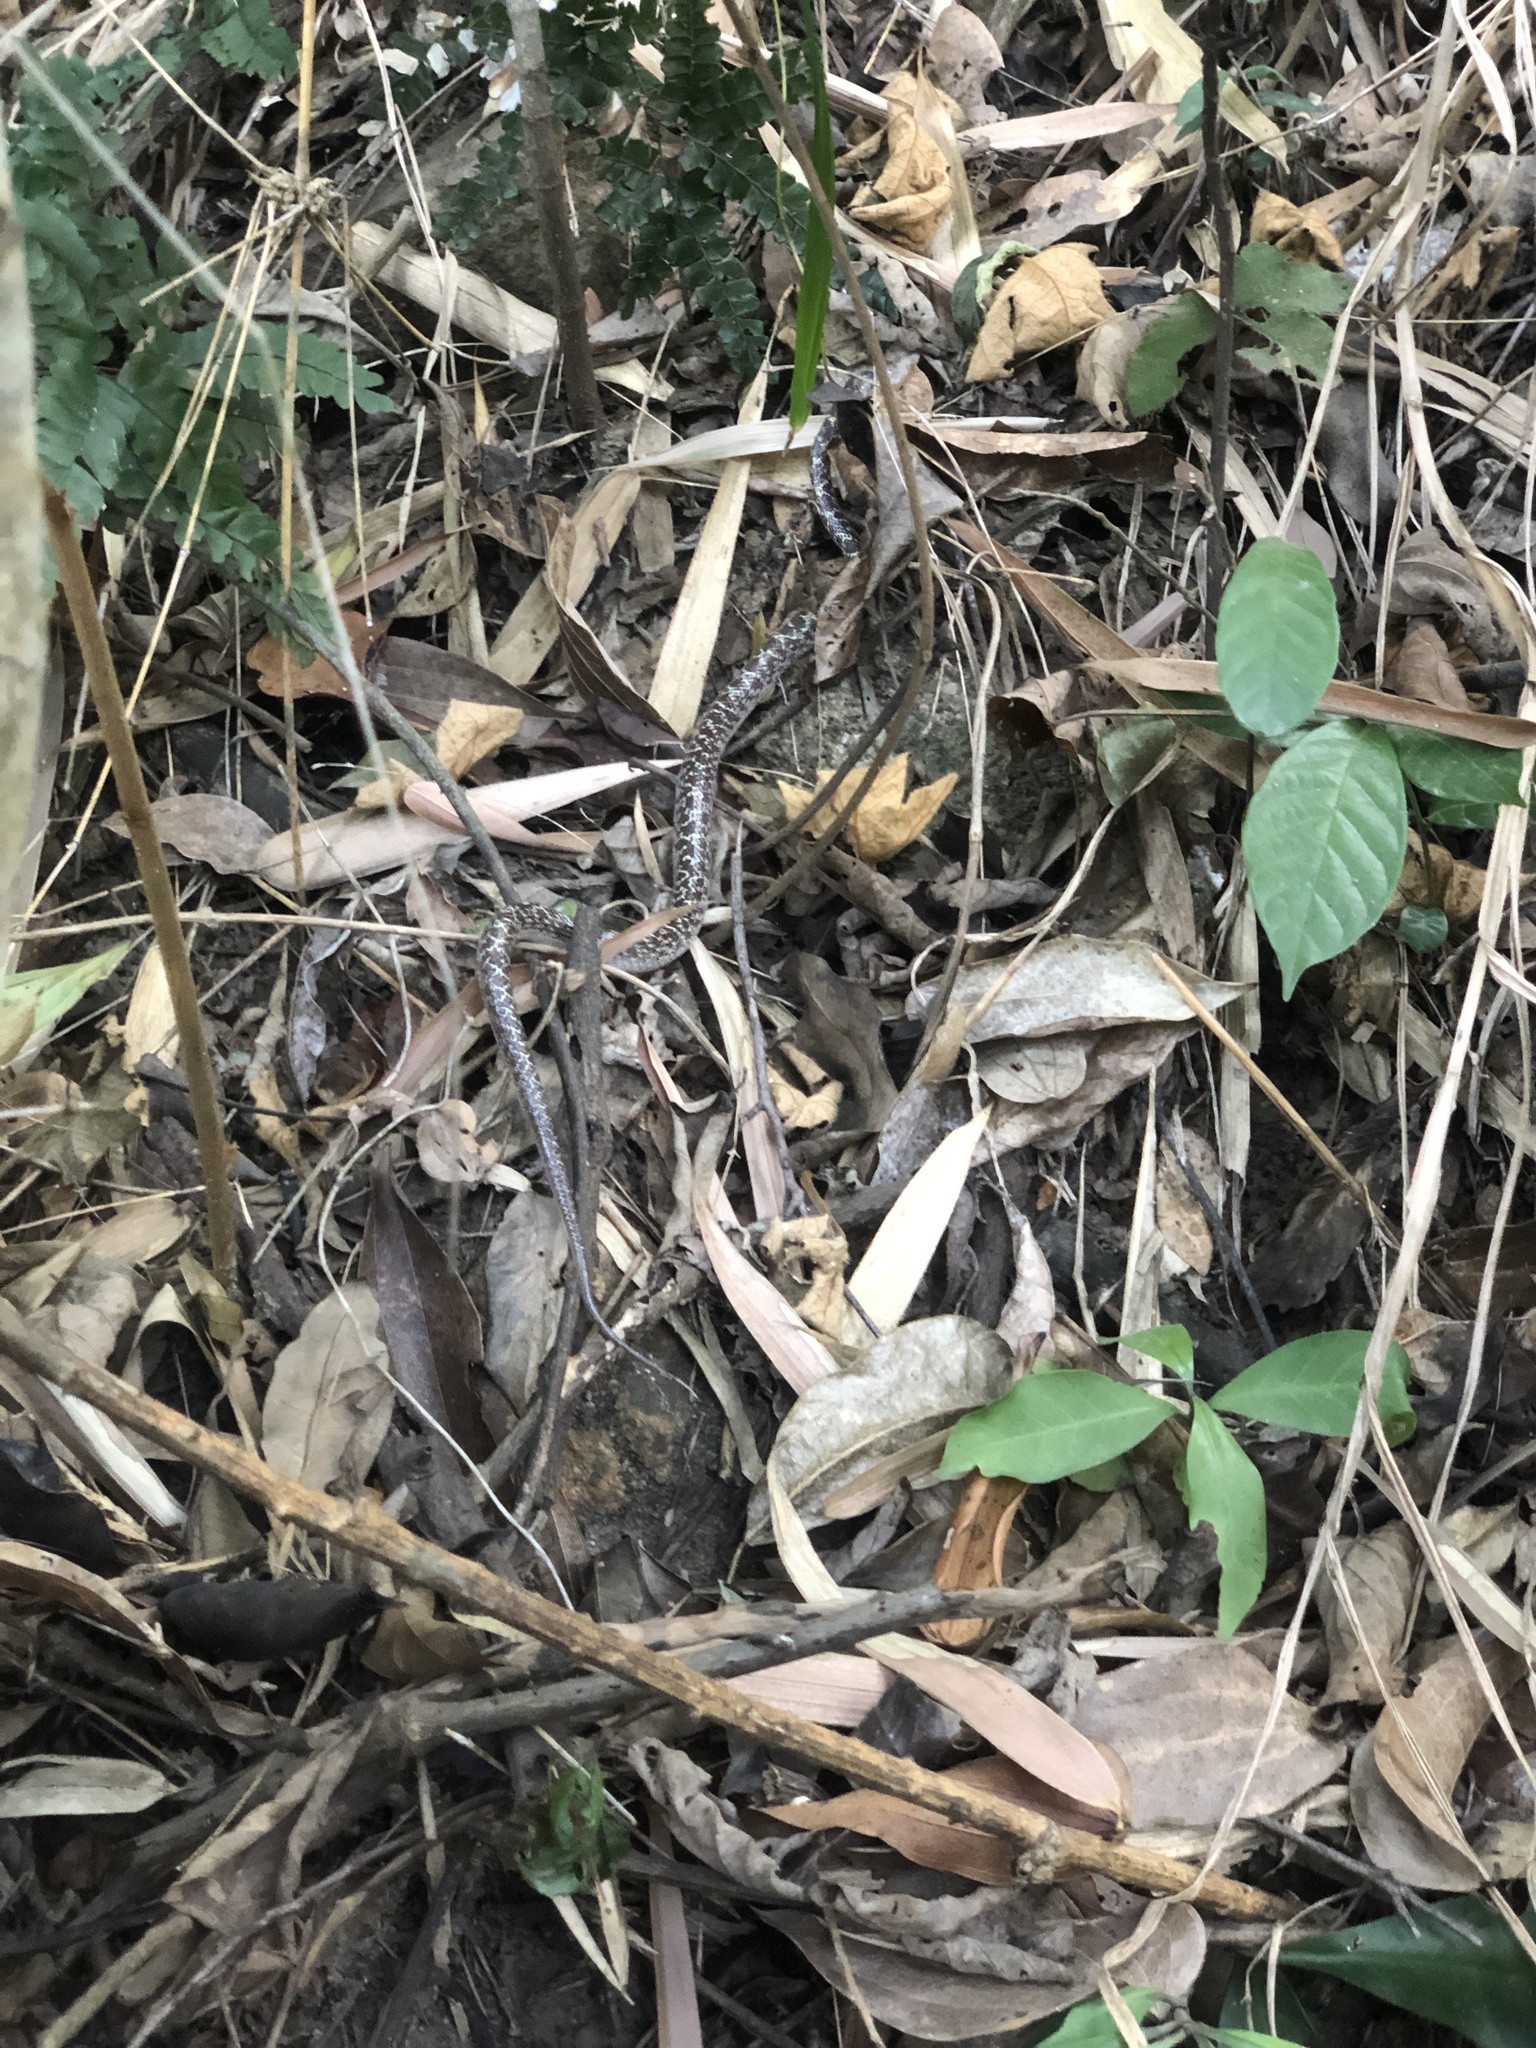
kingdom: Animalia
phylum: Chordata
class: Squamata
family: Colubridae
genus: Lycodon
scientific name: Lycodon capucinus
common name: Common wold snake/house snake
